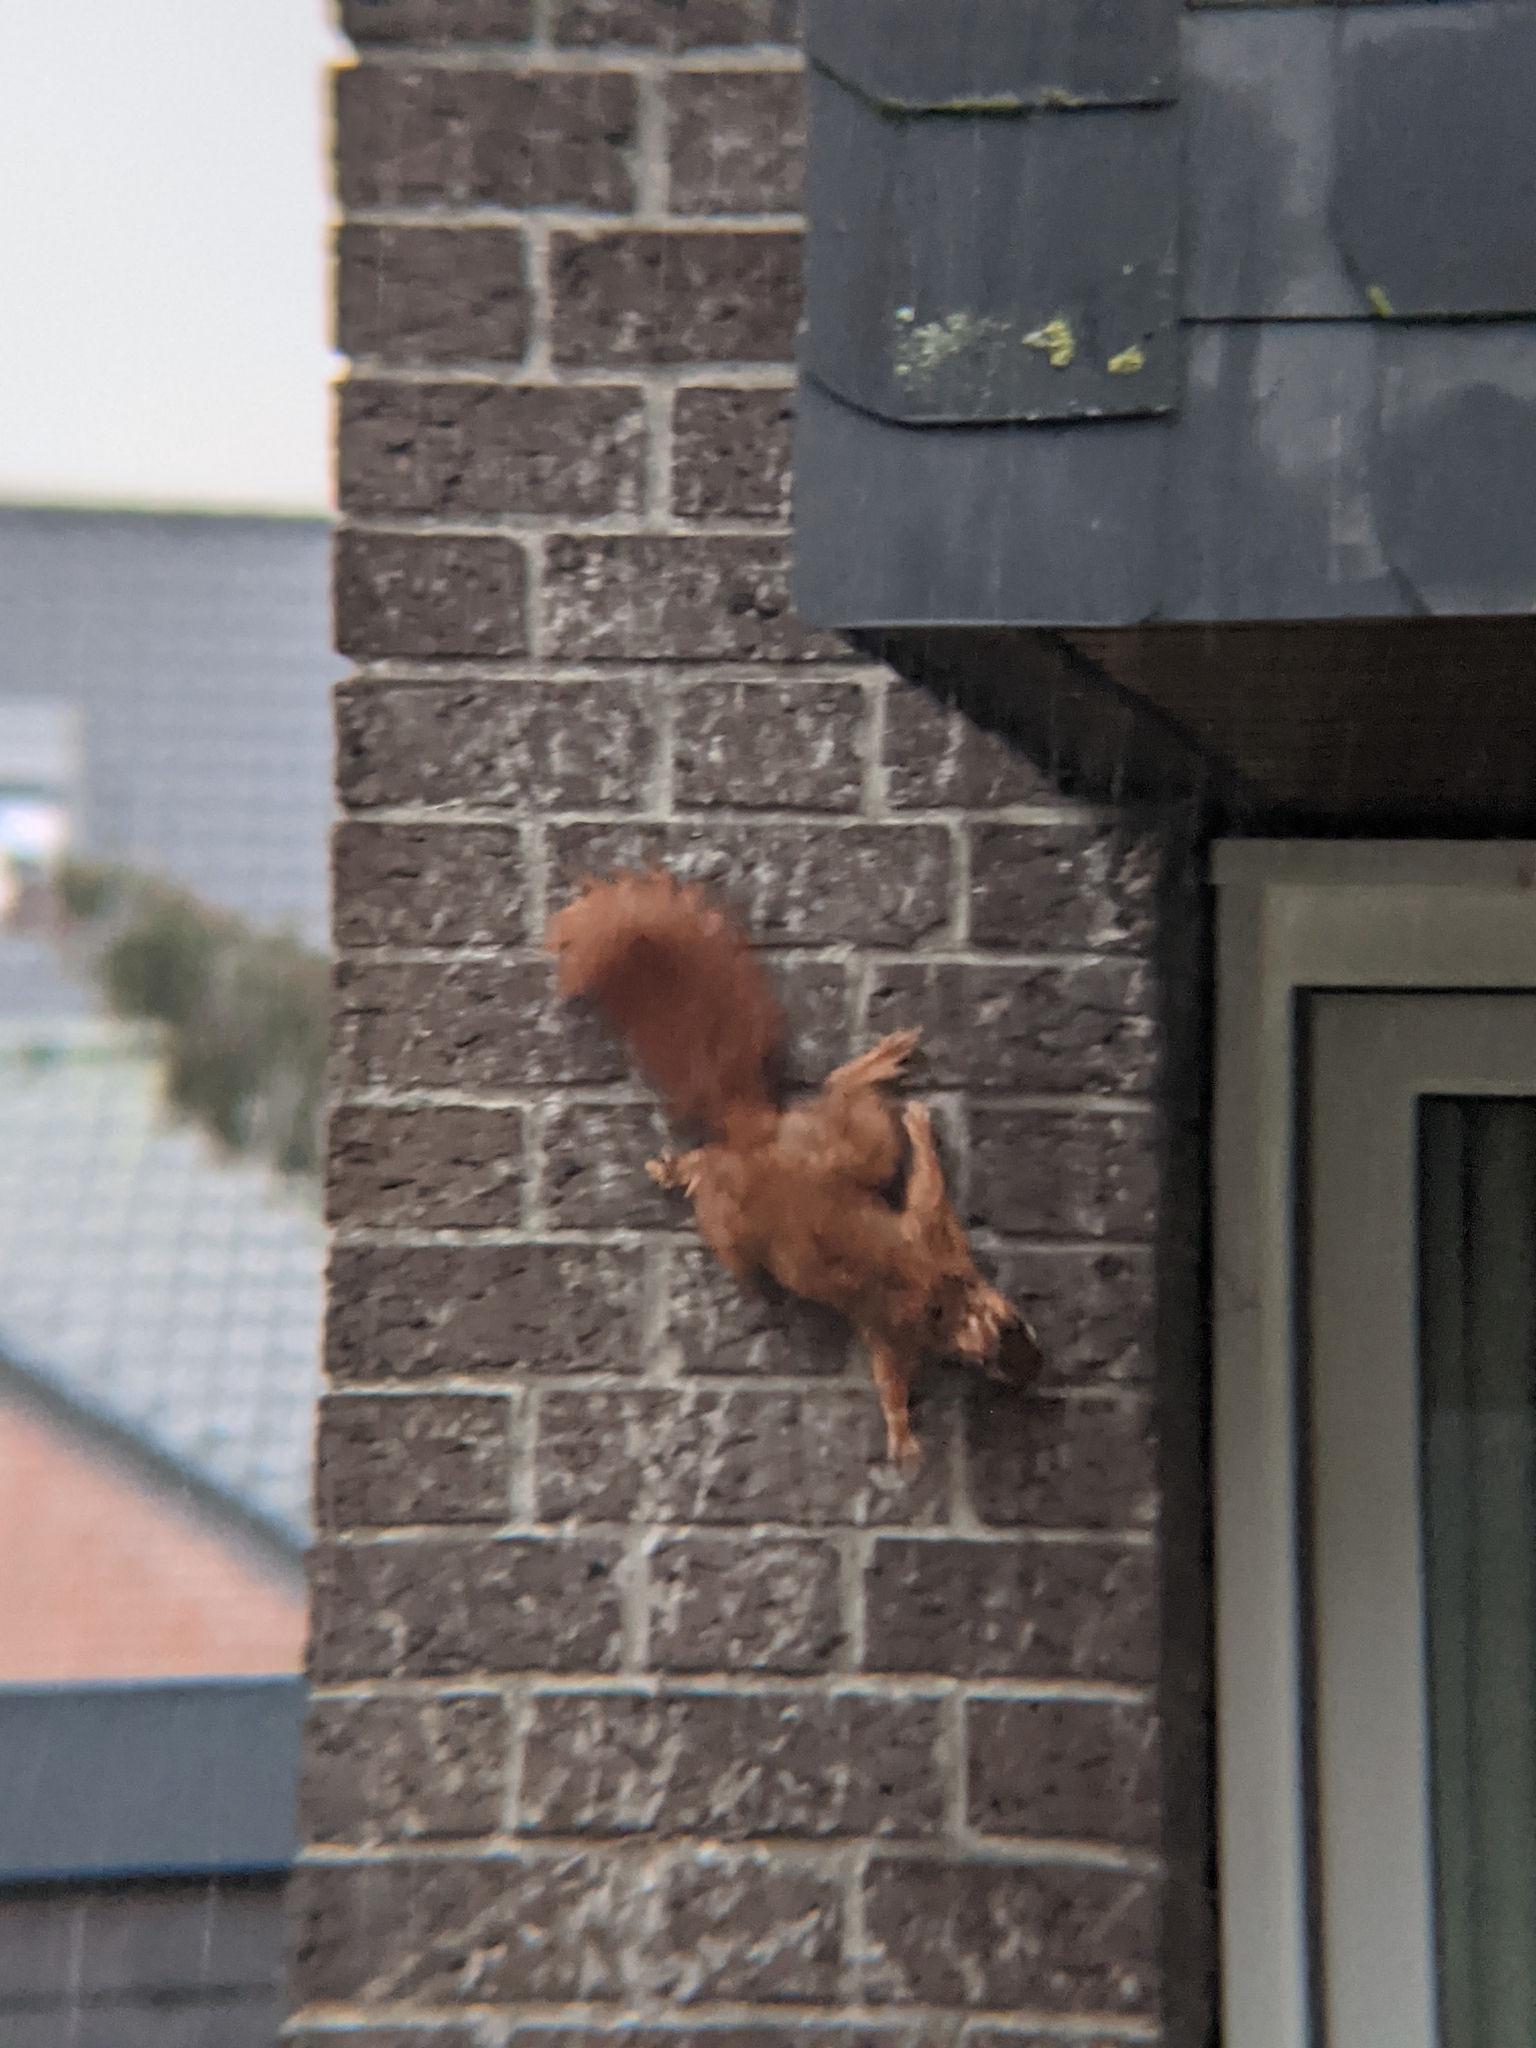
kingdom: Animalia
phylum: Chordata
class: Mammalia
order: Rodentia
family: Sciuridae
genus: Sciurus
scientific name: Sciurus vulgaris
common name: Eurasian red squirrel
